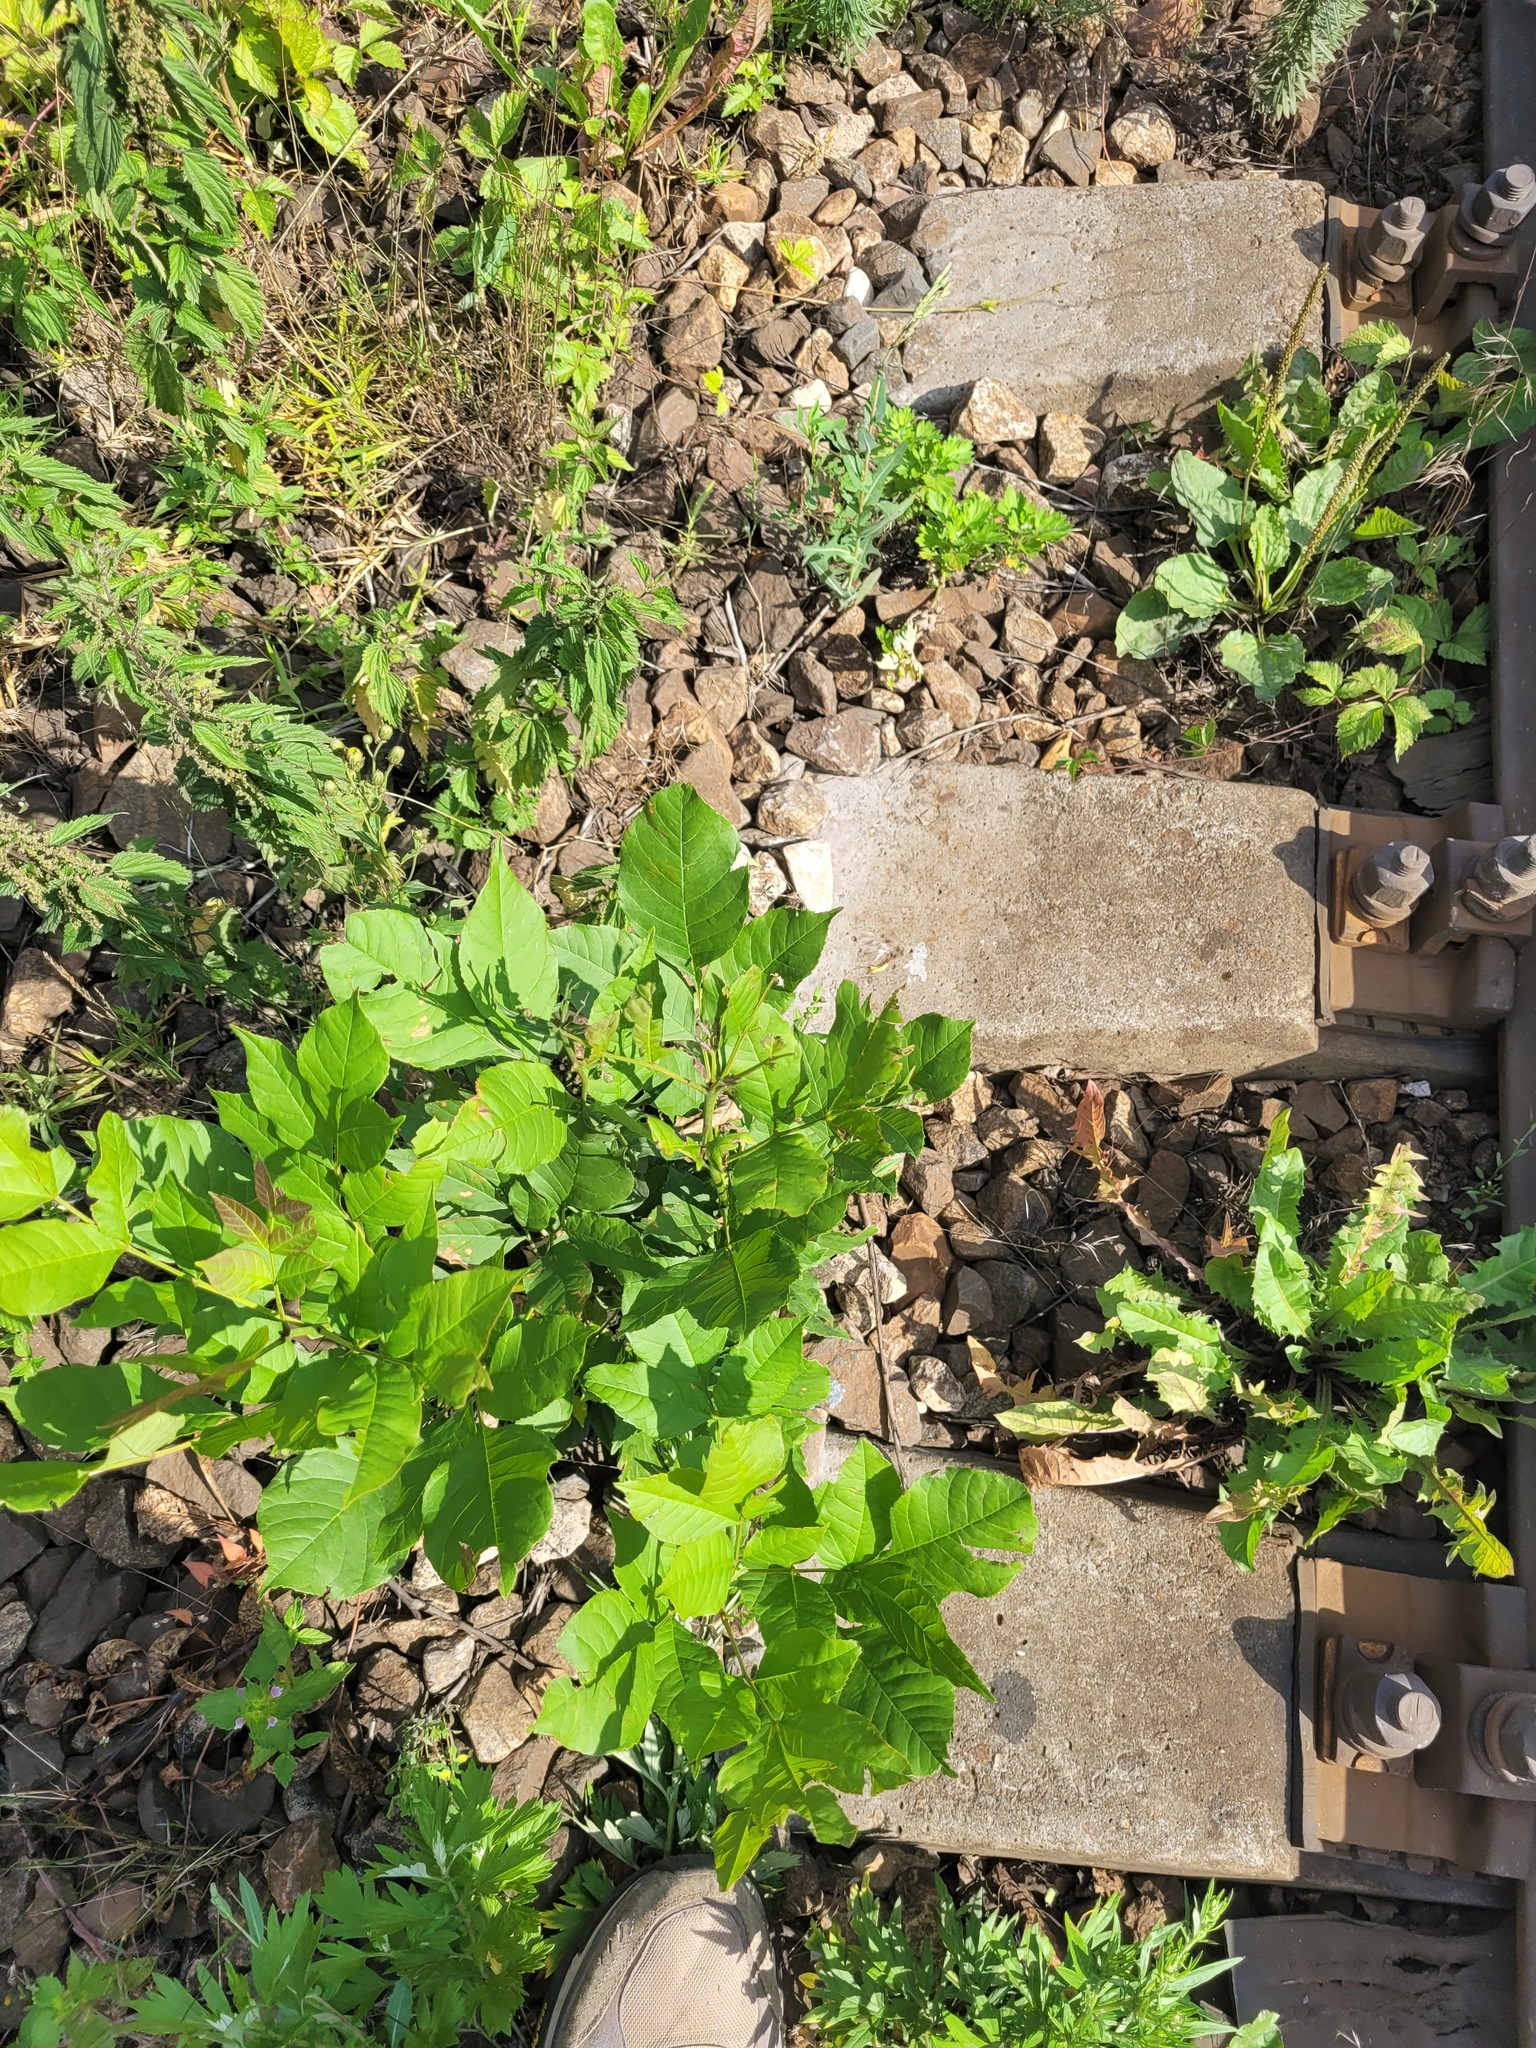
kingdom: Plantae
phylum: Tracheophyta
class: Magnoliopsida
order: Lamiales
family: Oleaceae
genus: Fraxinus
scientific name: Fraxinus pennsylvanica
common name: Green ash
